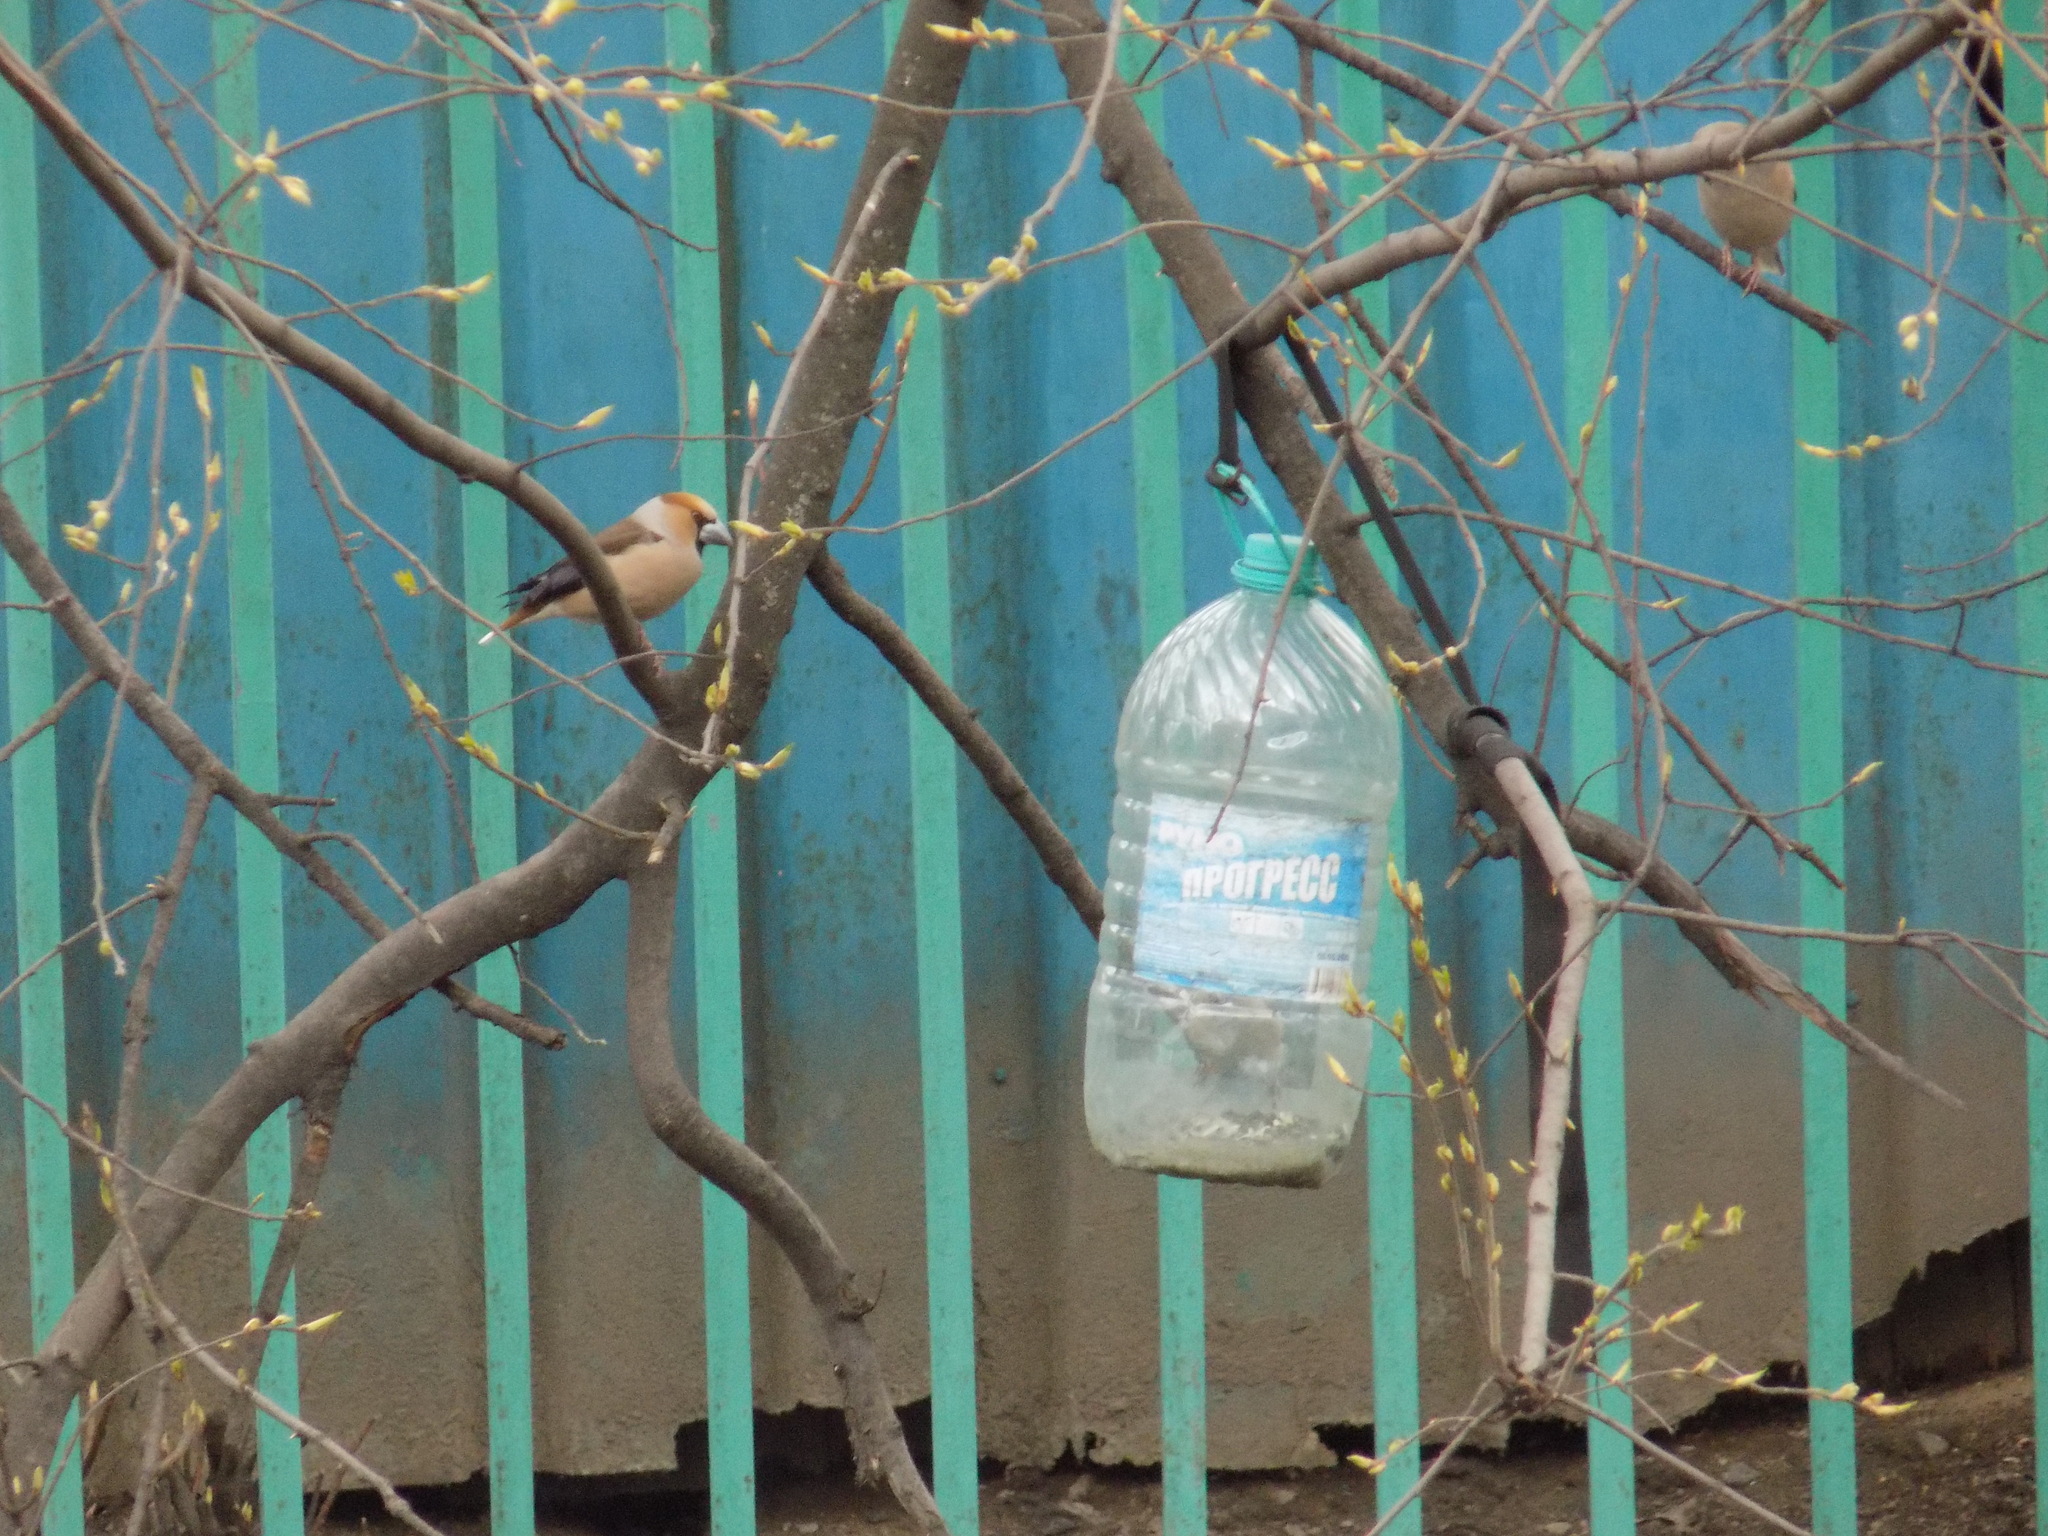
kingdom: Animalia
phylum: Chordata
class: Aves
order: Passeriformes
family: Fringillidae
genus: Coccothraustes
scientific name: Coccothraustes coccothraustes
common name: Hawfinch
